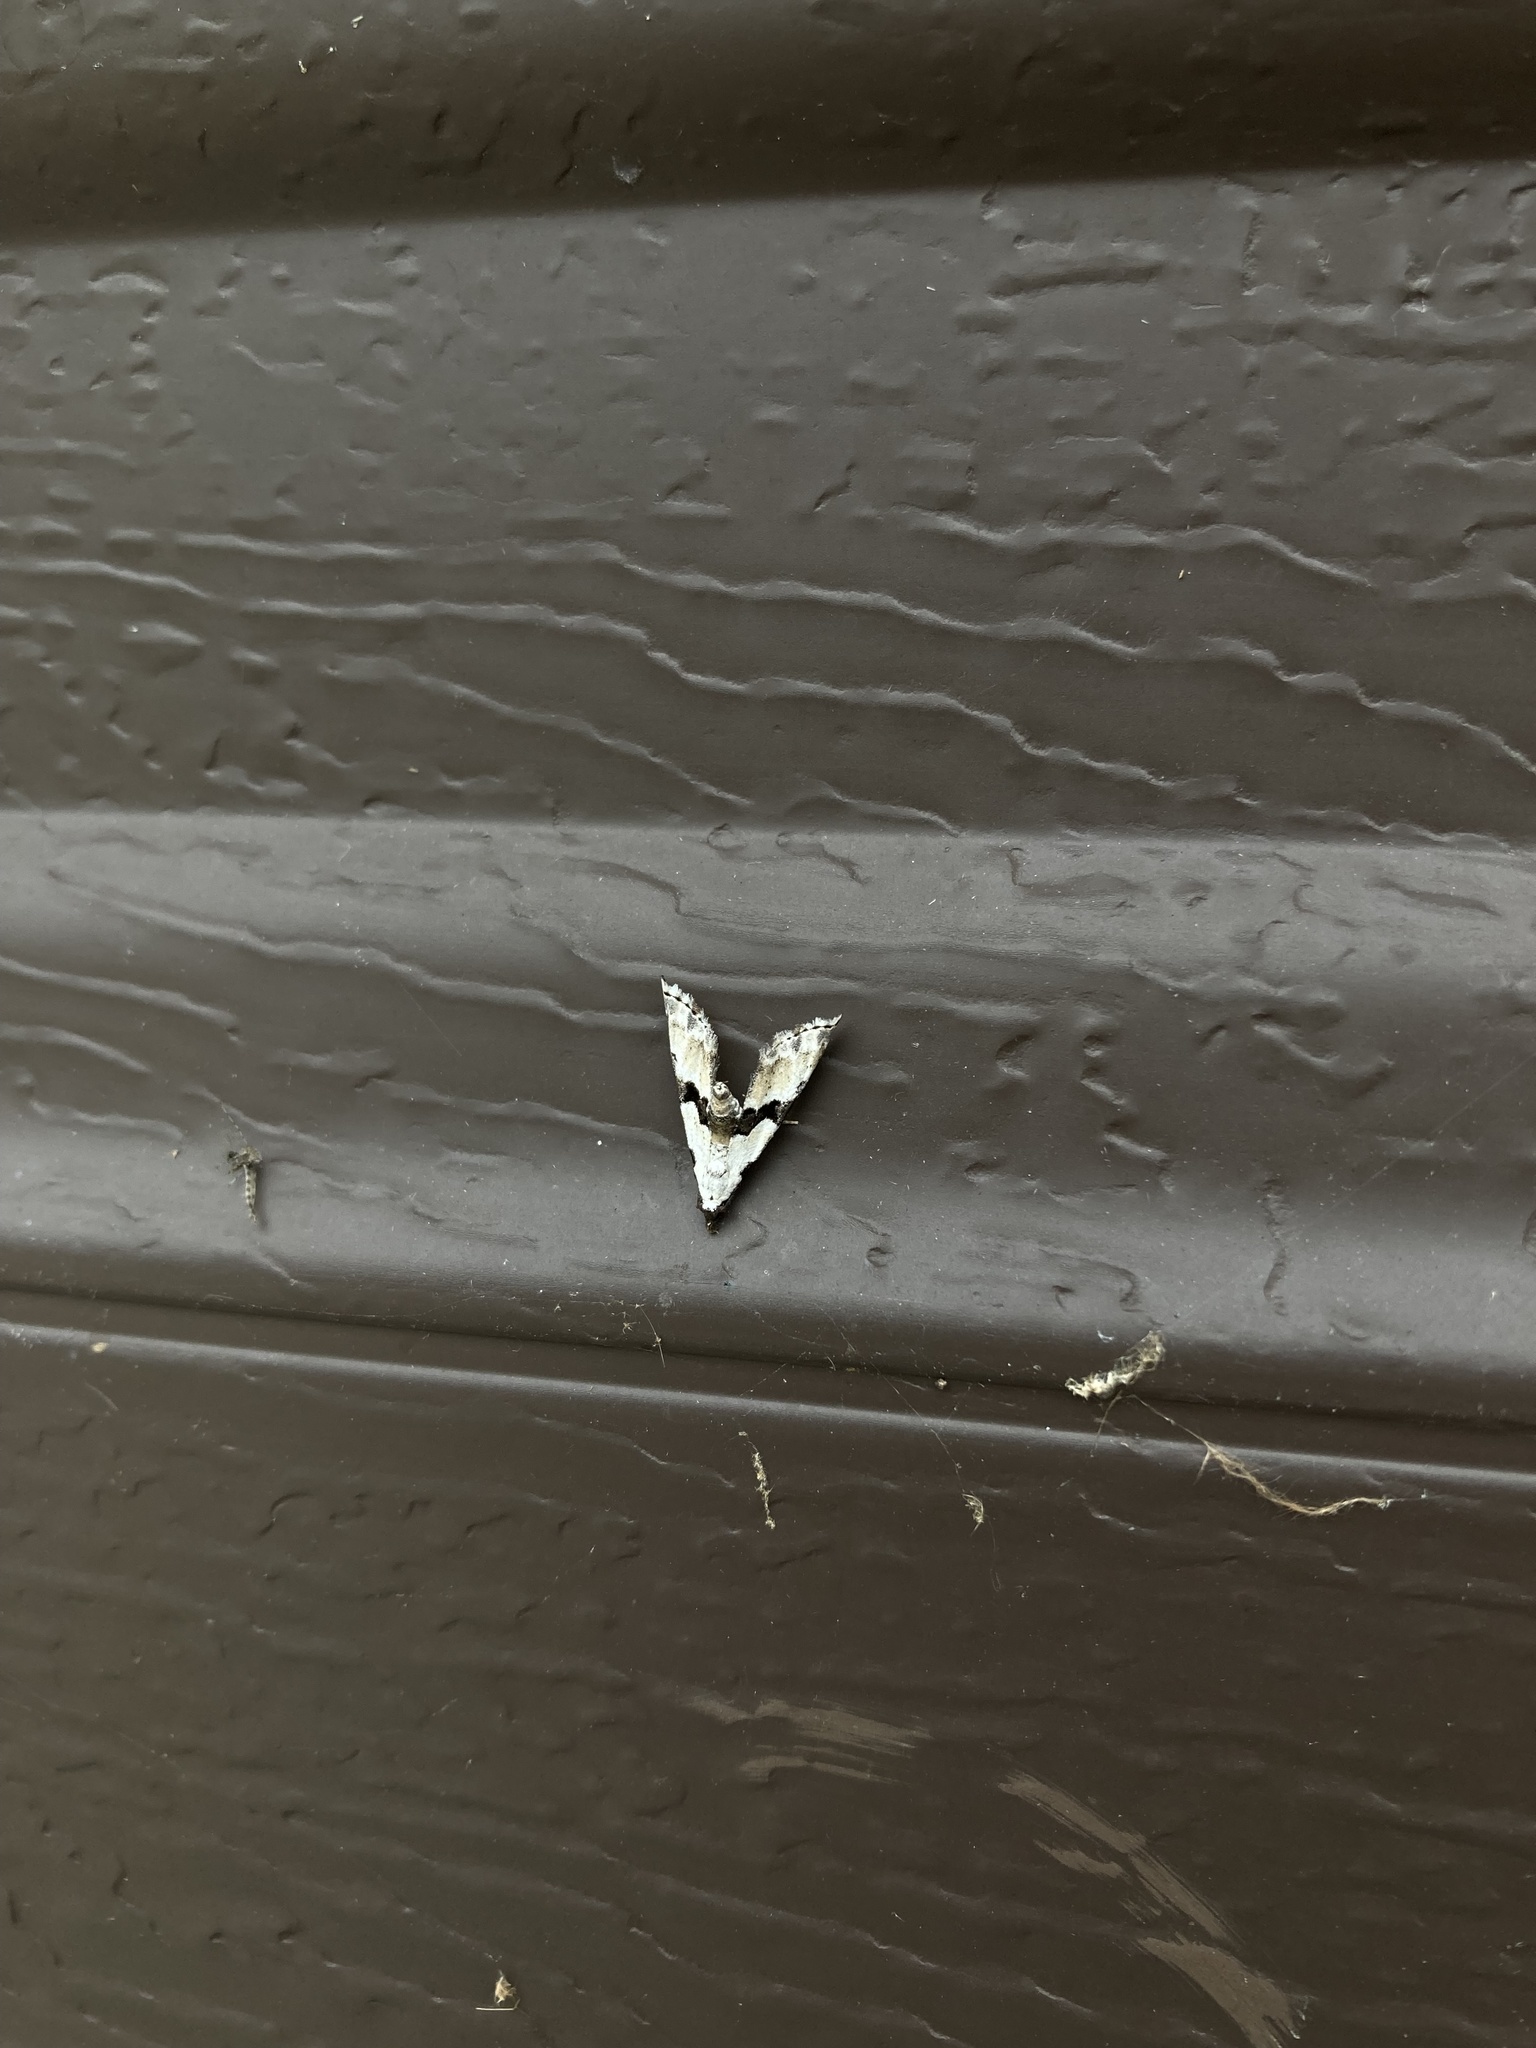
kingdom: Animalia
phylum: Arthropoda
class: Insecta
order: Lepidoptera
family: Noctuidae
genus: Nigetia
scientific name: Nigetia formosalis
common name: Thin-winged owlet
